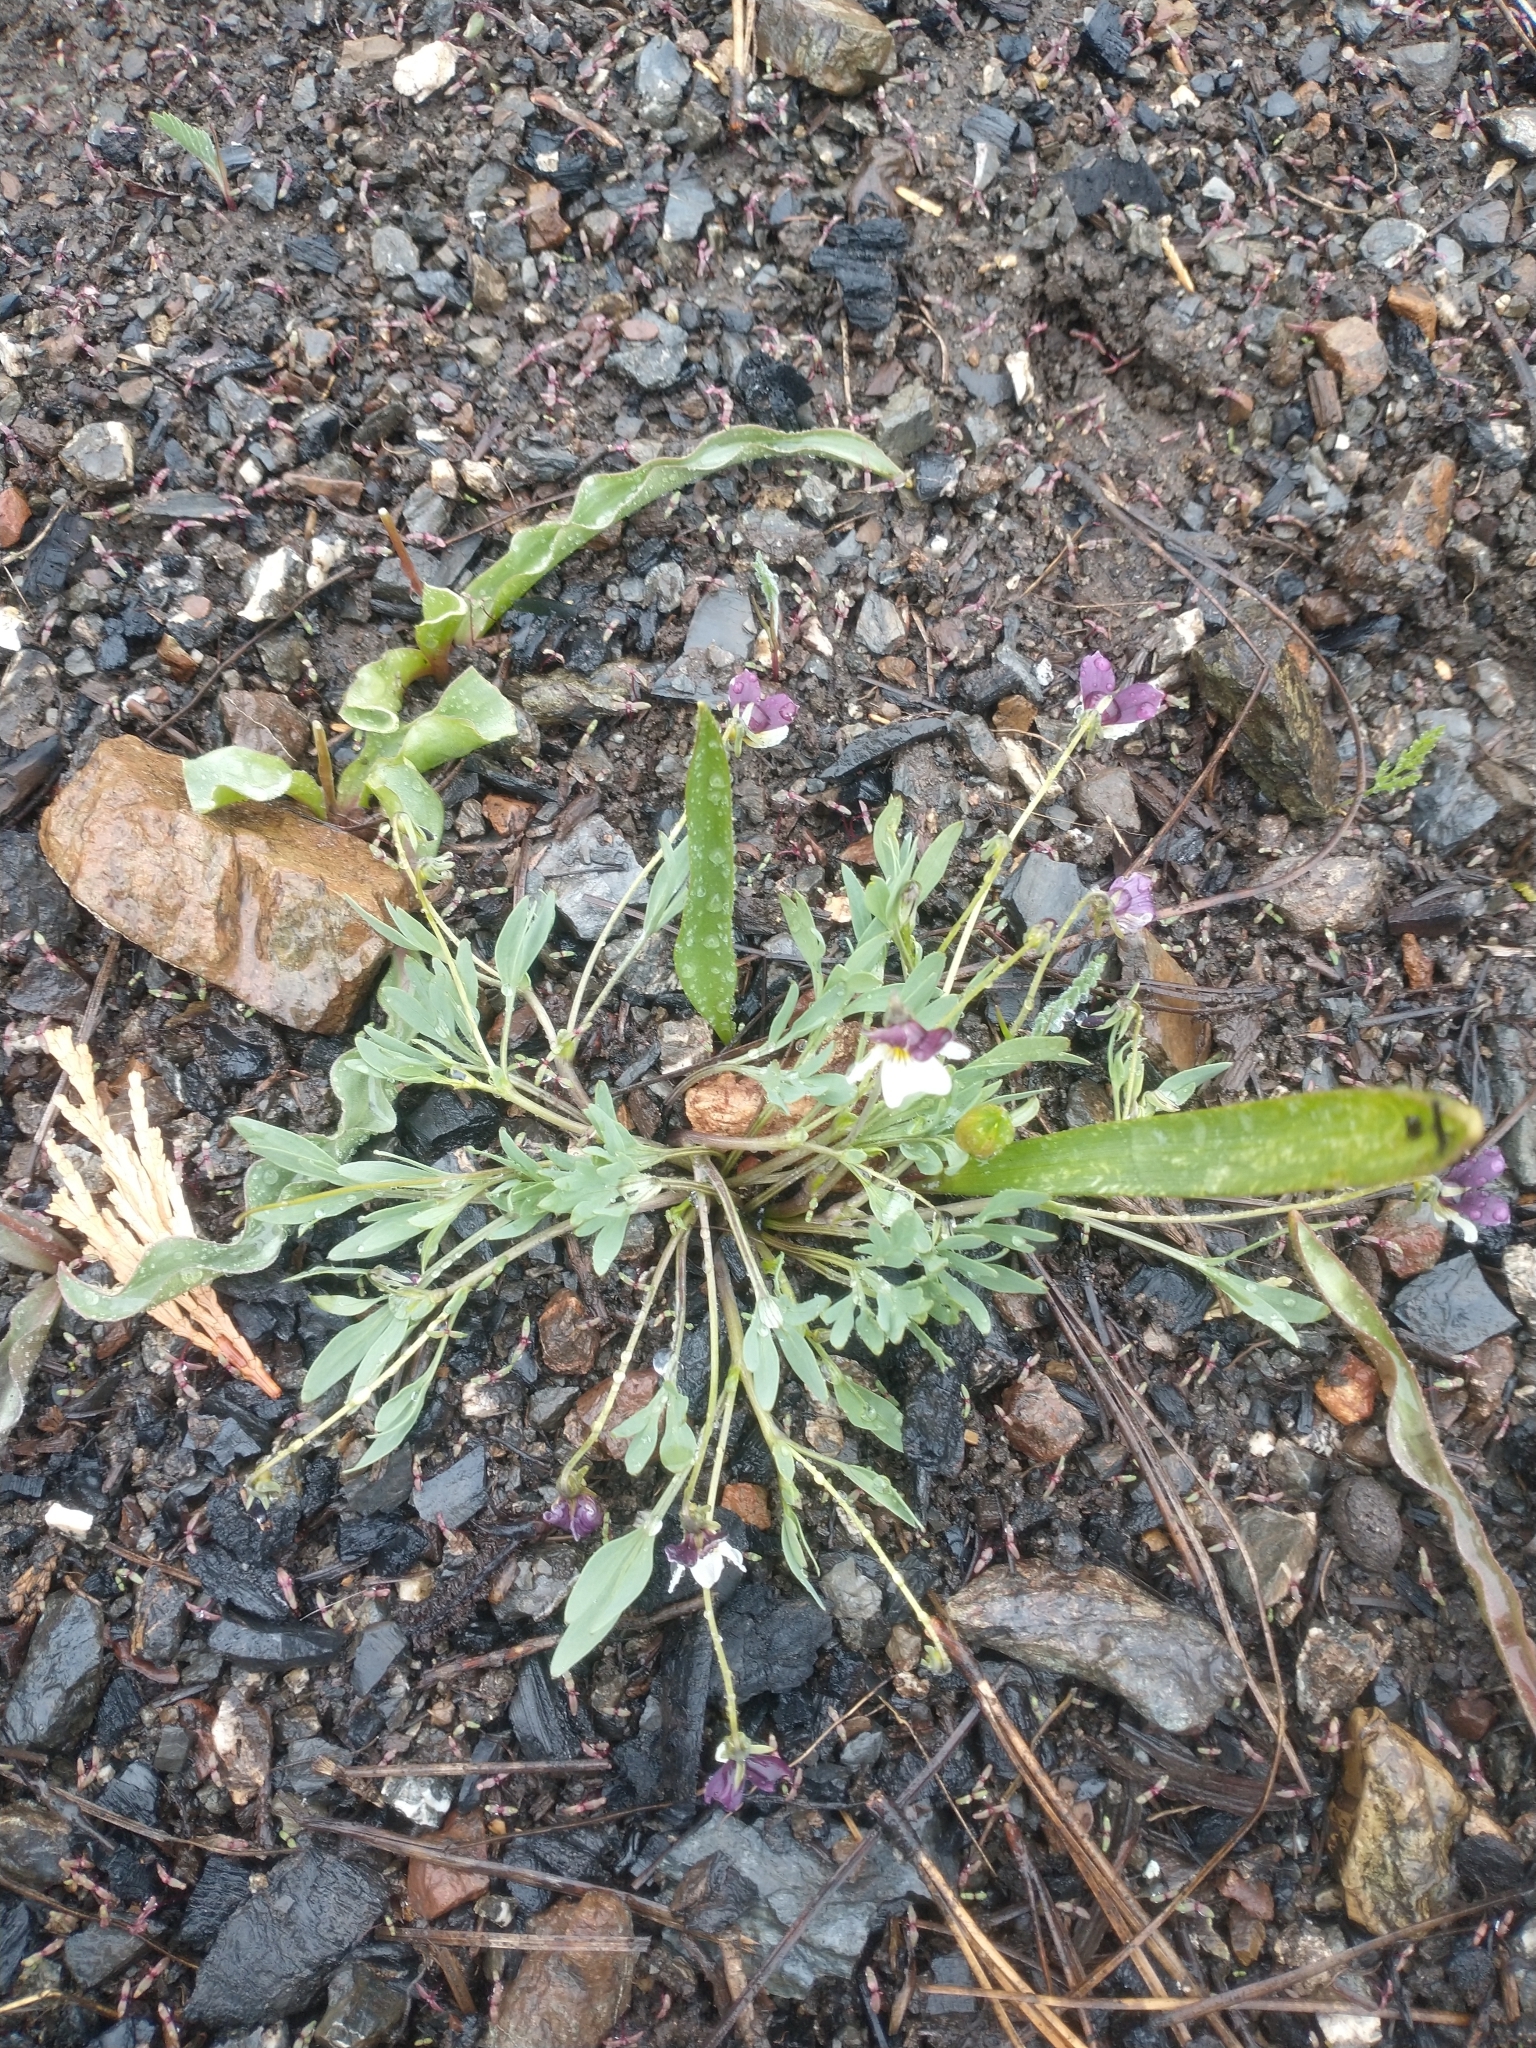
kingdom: Plantae
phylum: Tracheophyta
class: Magnoliopsida
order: Malpighiales
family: Violaceae
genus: Viola
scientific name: Viola hallii
